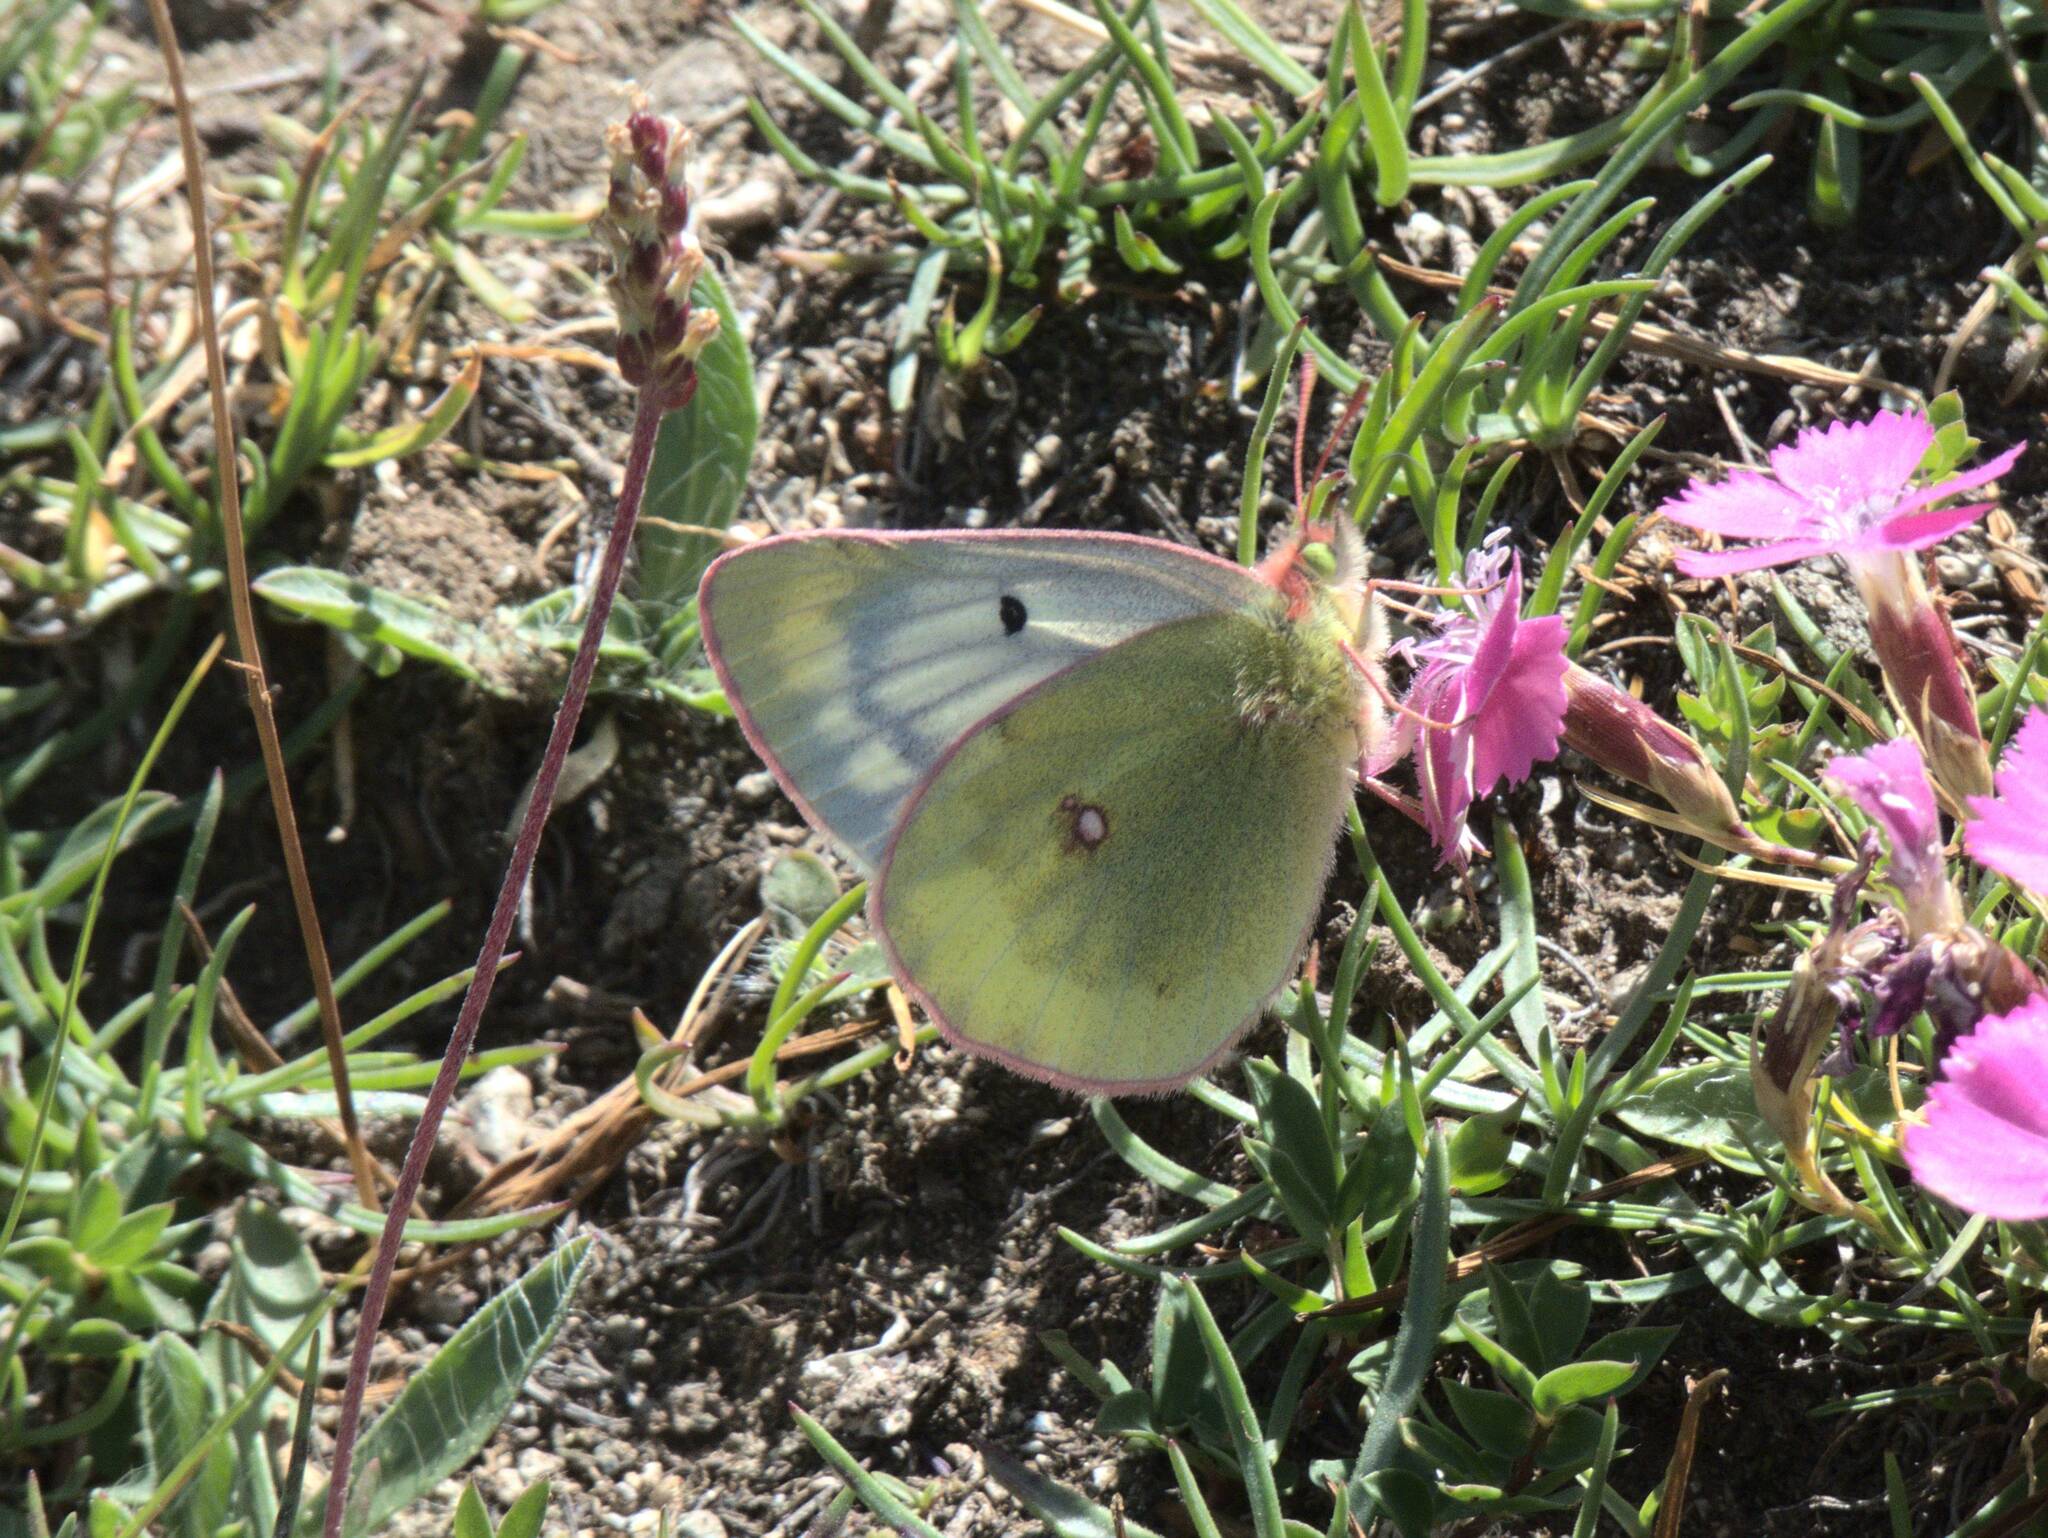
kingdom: Animalia
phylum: Arthropoda
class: Insecta
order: Lepidoptera
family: Pieridae
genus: Colias
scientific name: Colias phicomone
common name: Mountain clouded yellow
